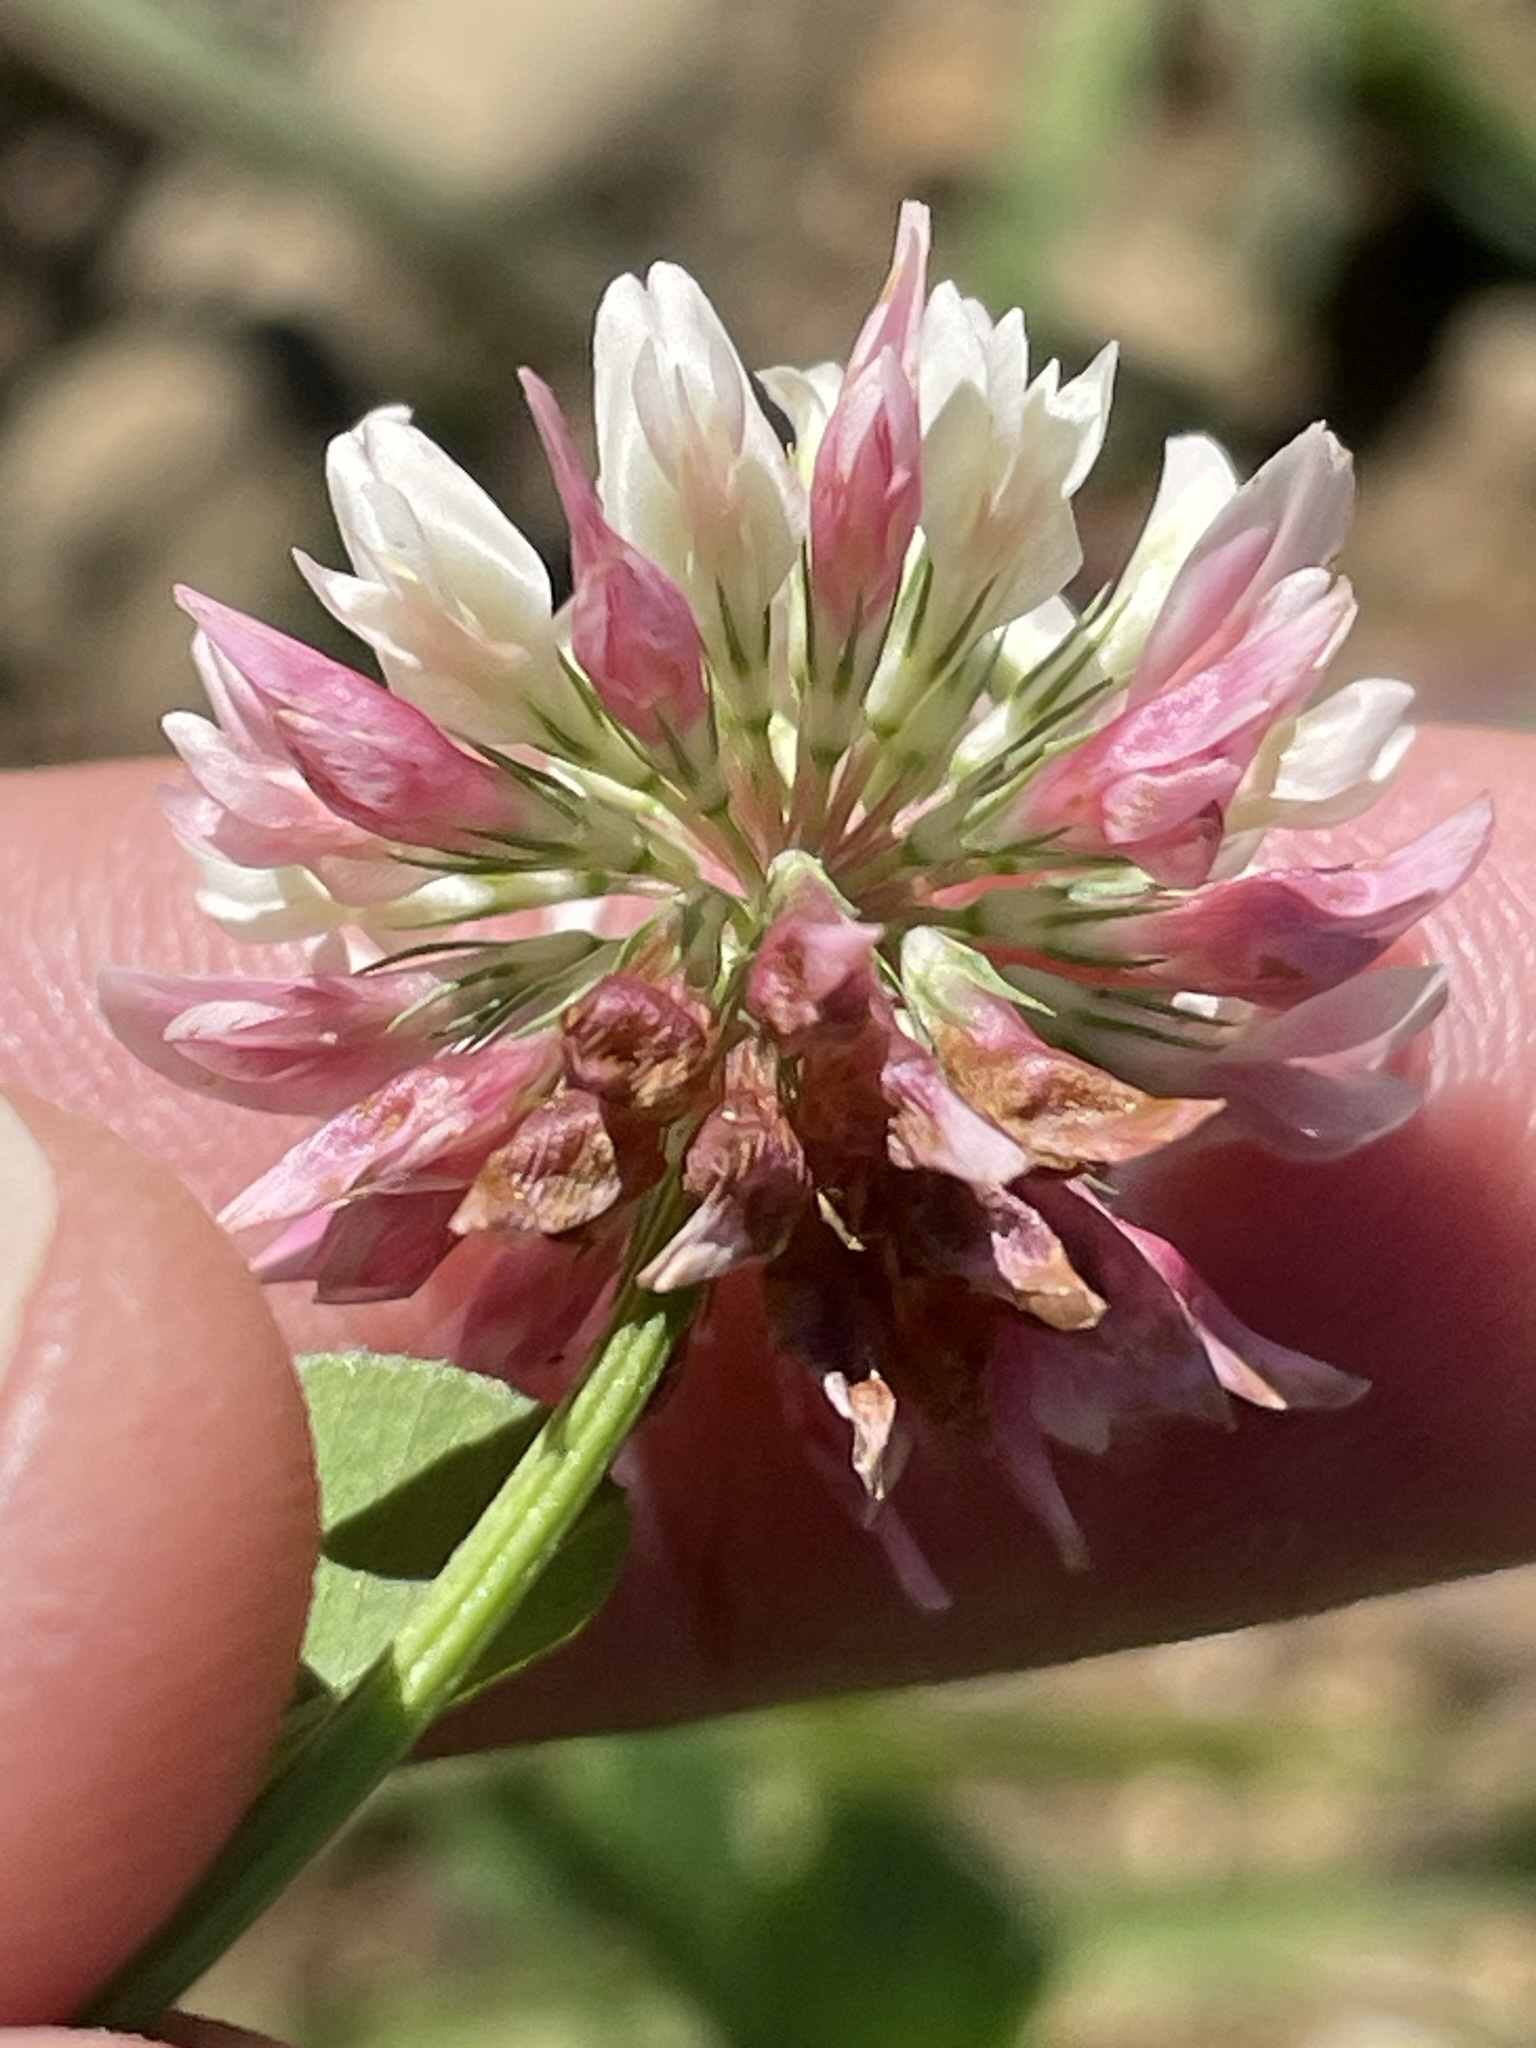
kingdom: Plantae
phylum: Tracheophyta
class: Magnoliopsida
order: Fabales
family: Fabaceae
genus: Trifolium
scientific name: Trifolium hybridum
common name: Alsike clover
